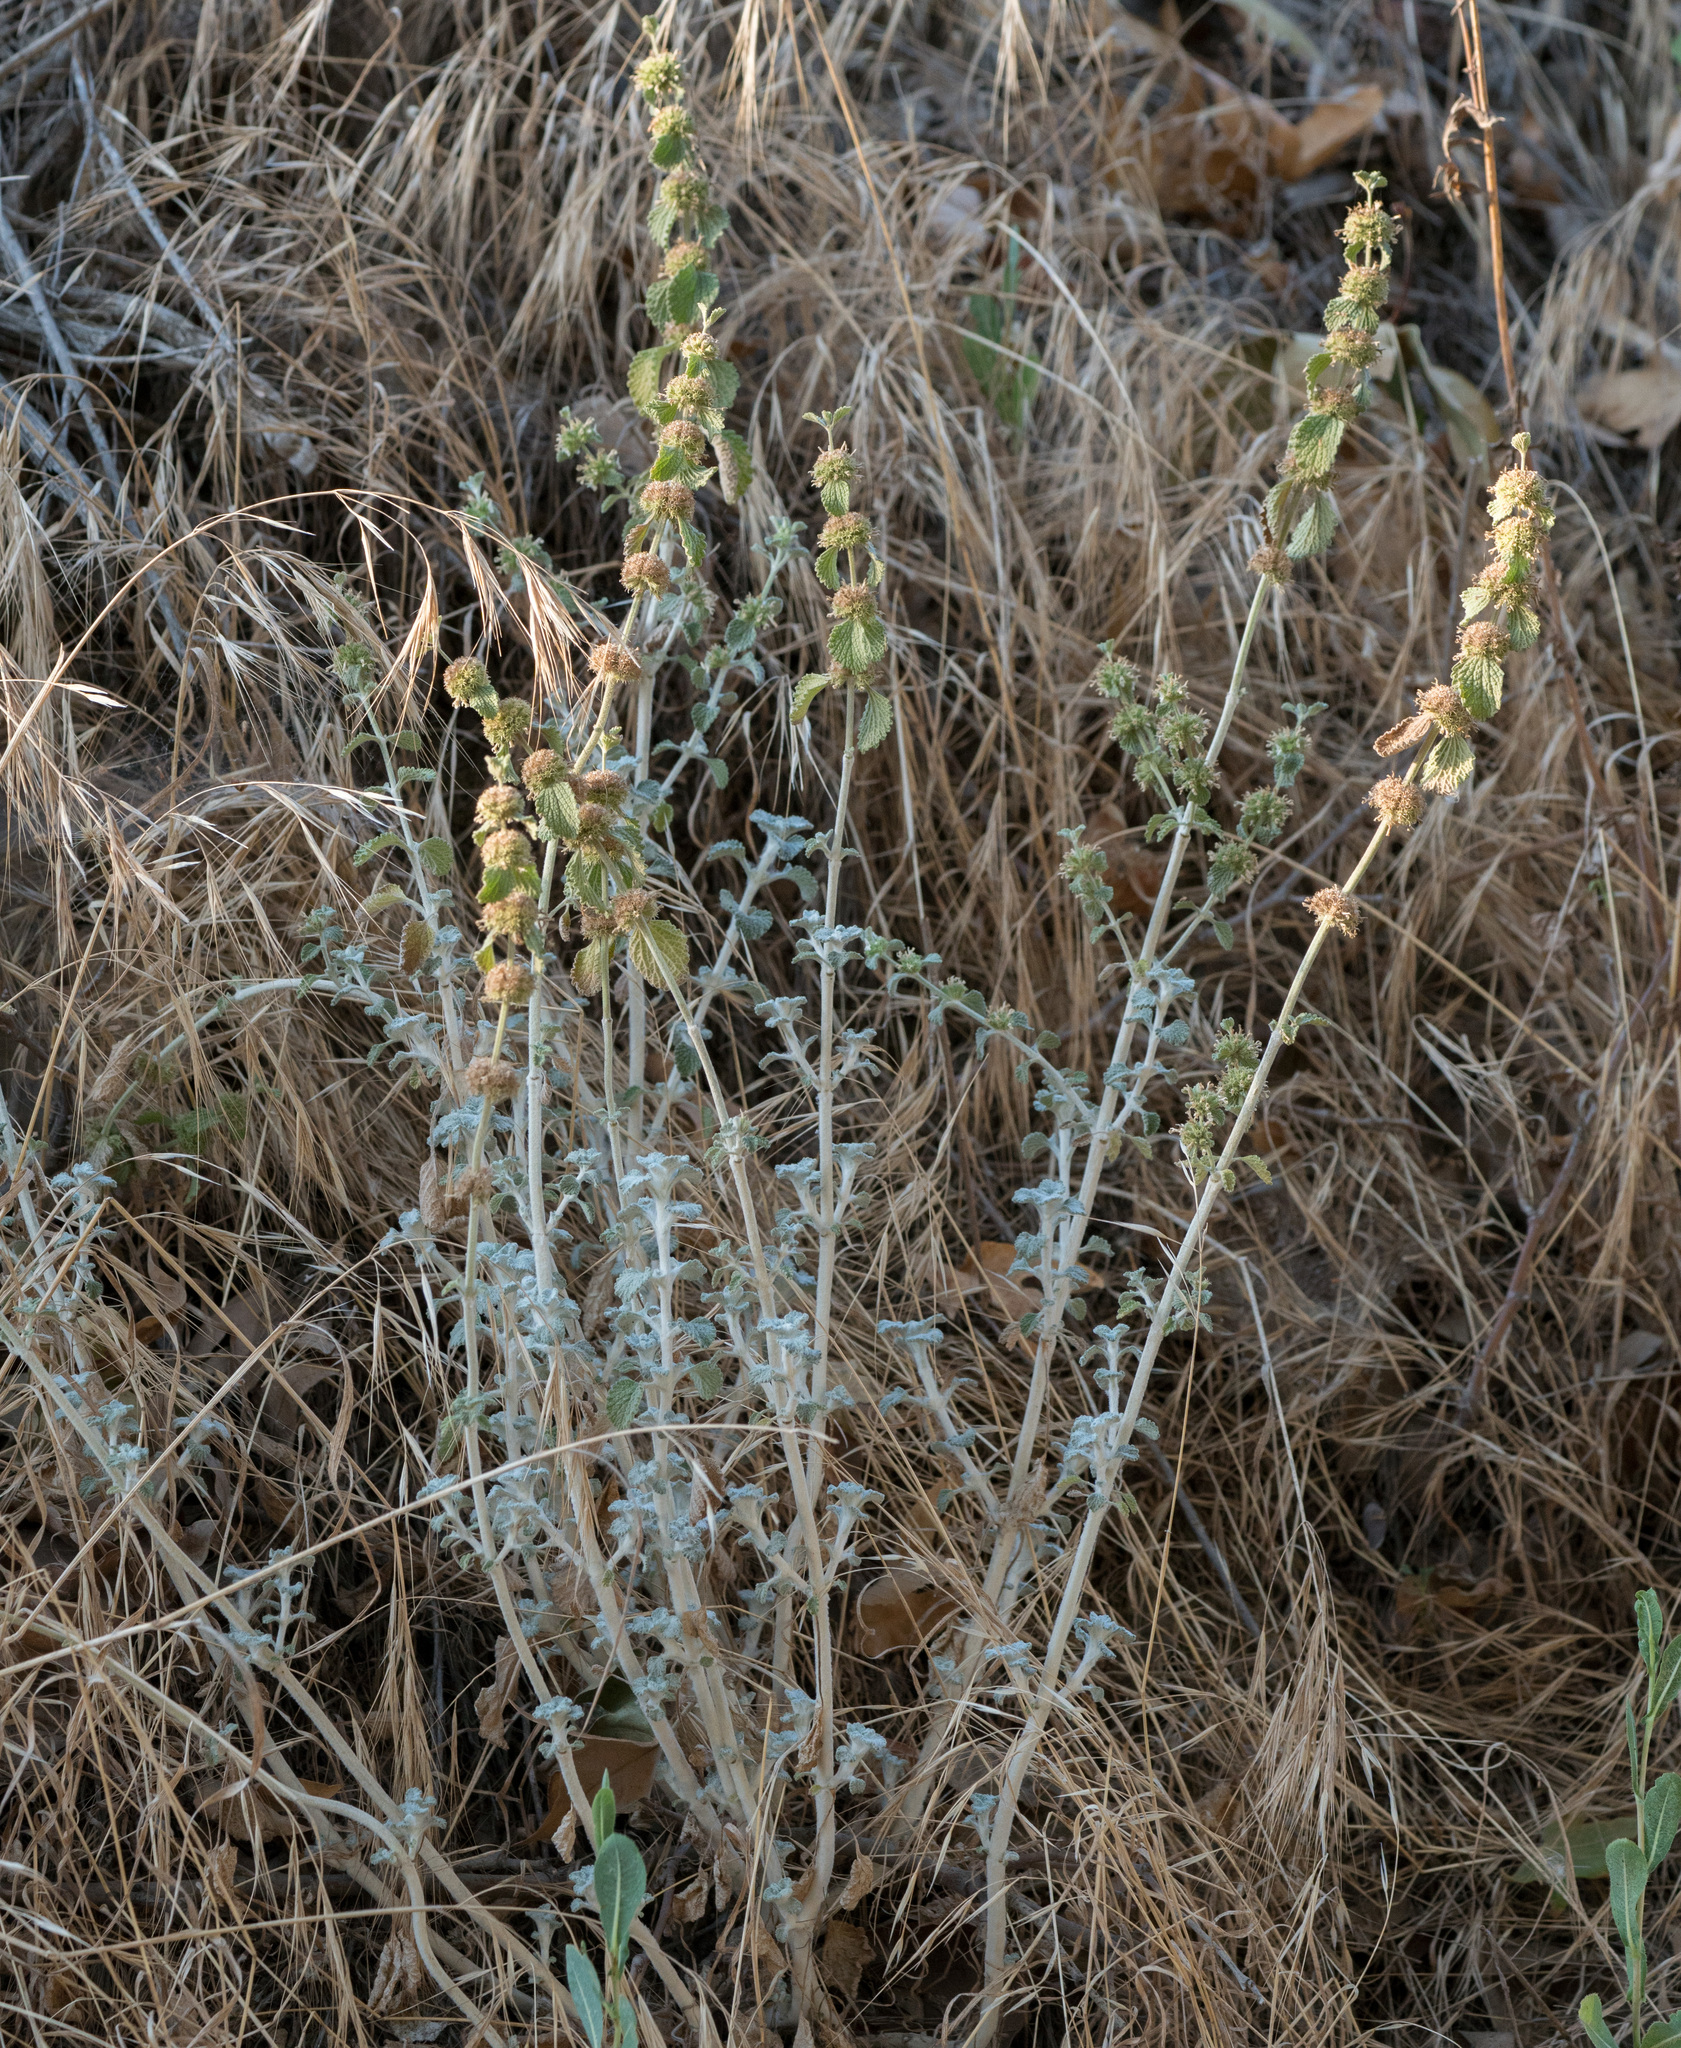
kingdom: Plantae
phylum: Tracheophyta
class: Magnoliopsida
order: Lamiales
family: Lamiaceae
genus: Marrubium
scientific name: Marrubium vulgare
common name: Horehound
